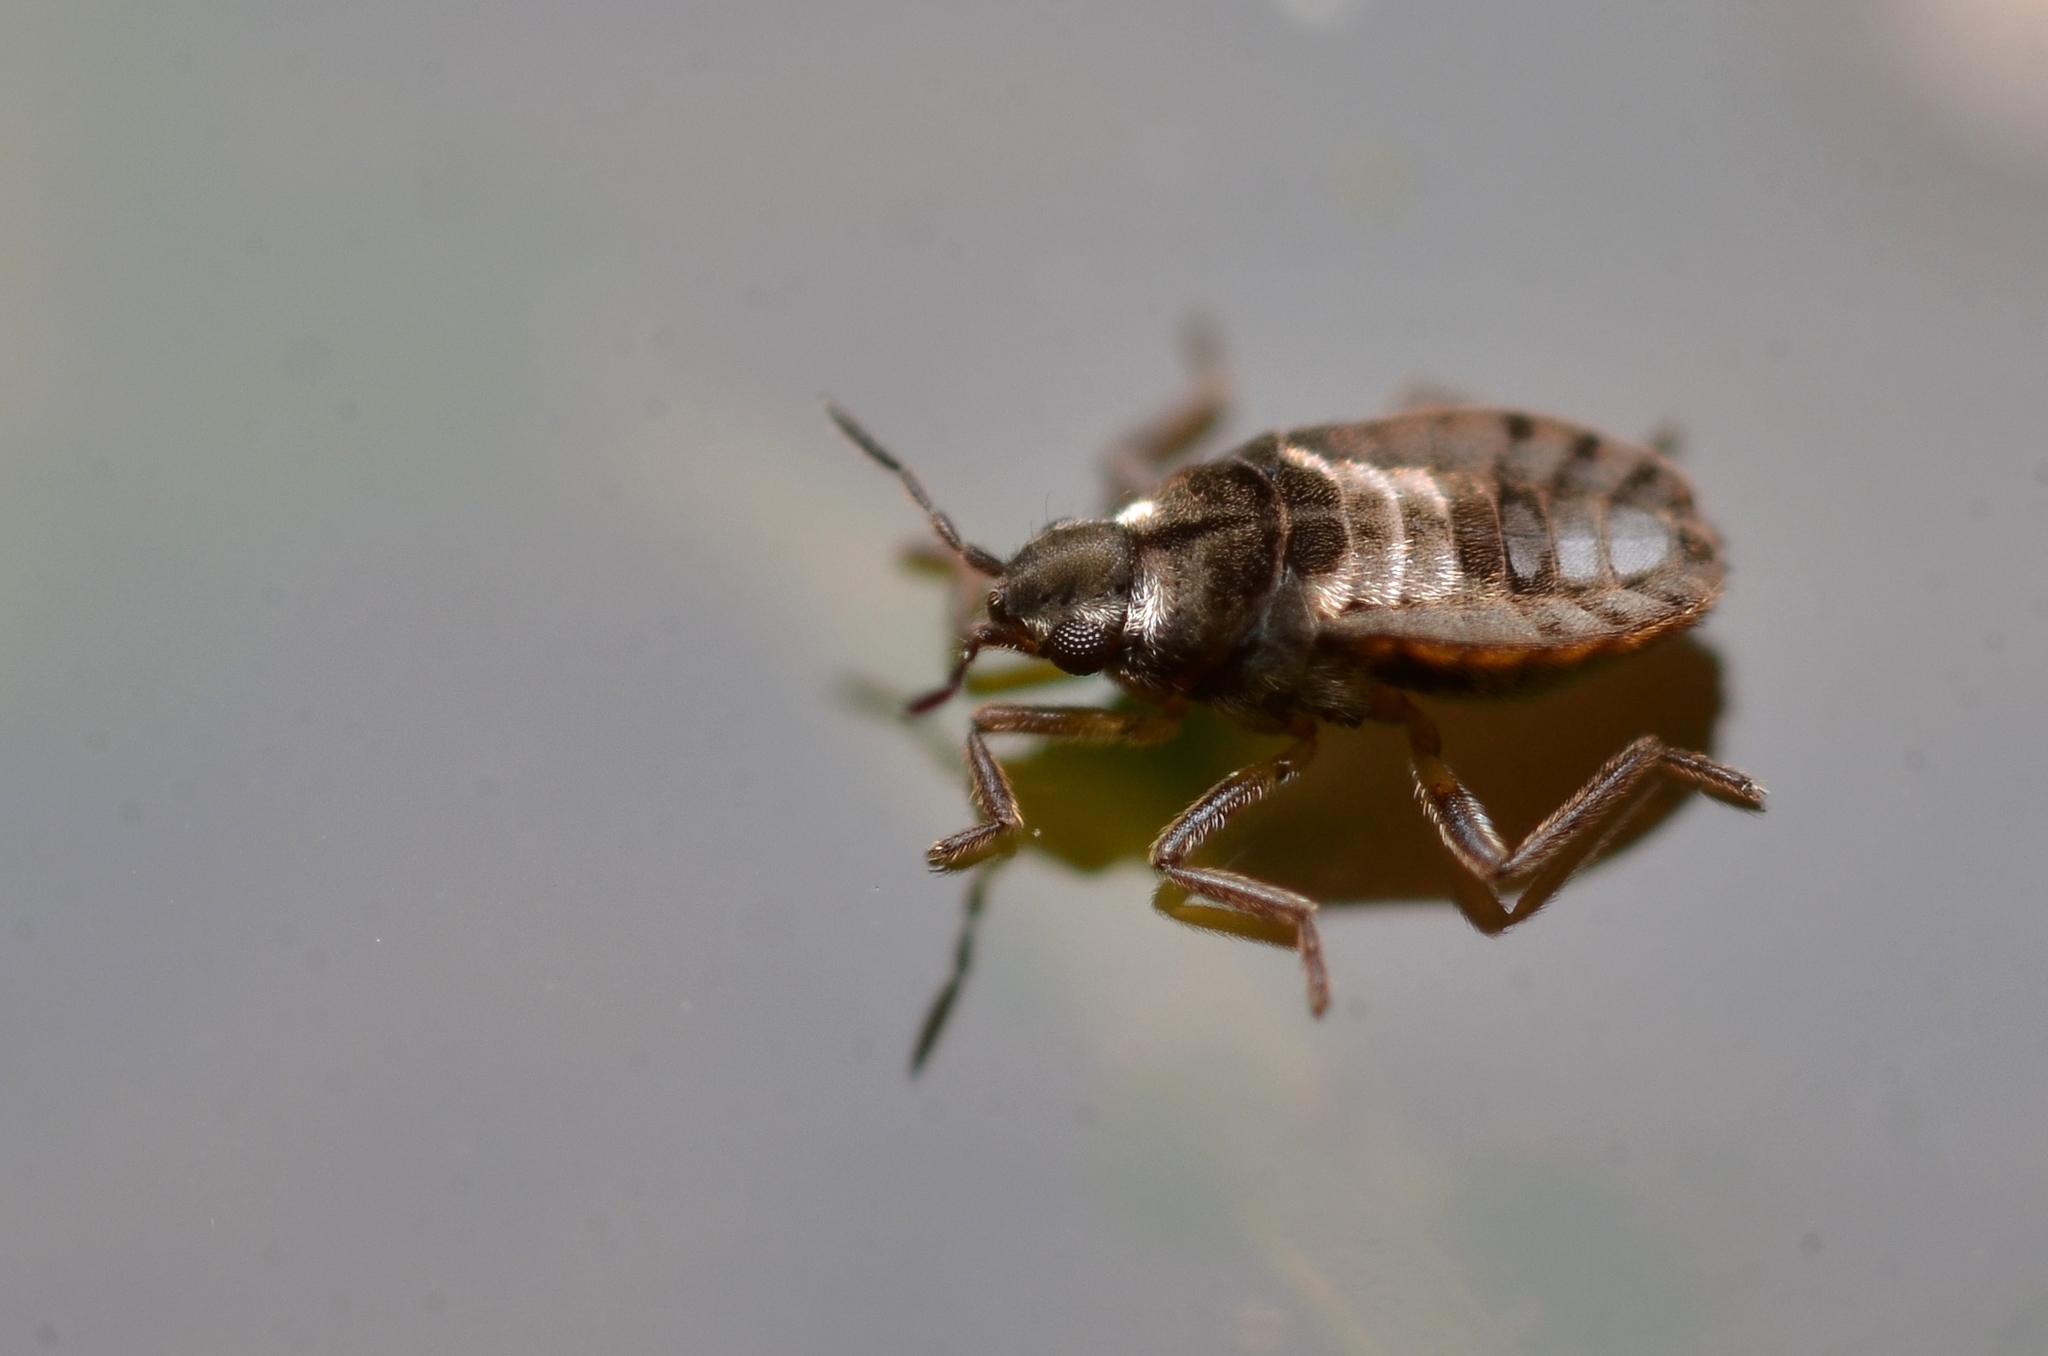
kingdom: Animalia
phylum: Arthropoda
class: Insecta
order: Hemiptera
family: Veliidae
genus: Microvelia
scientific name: Microvelia reticulata
